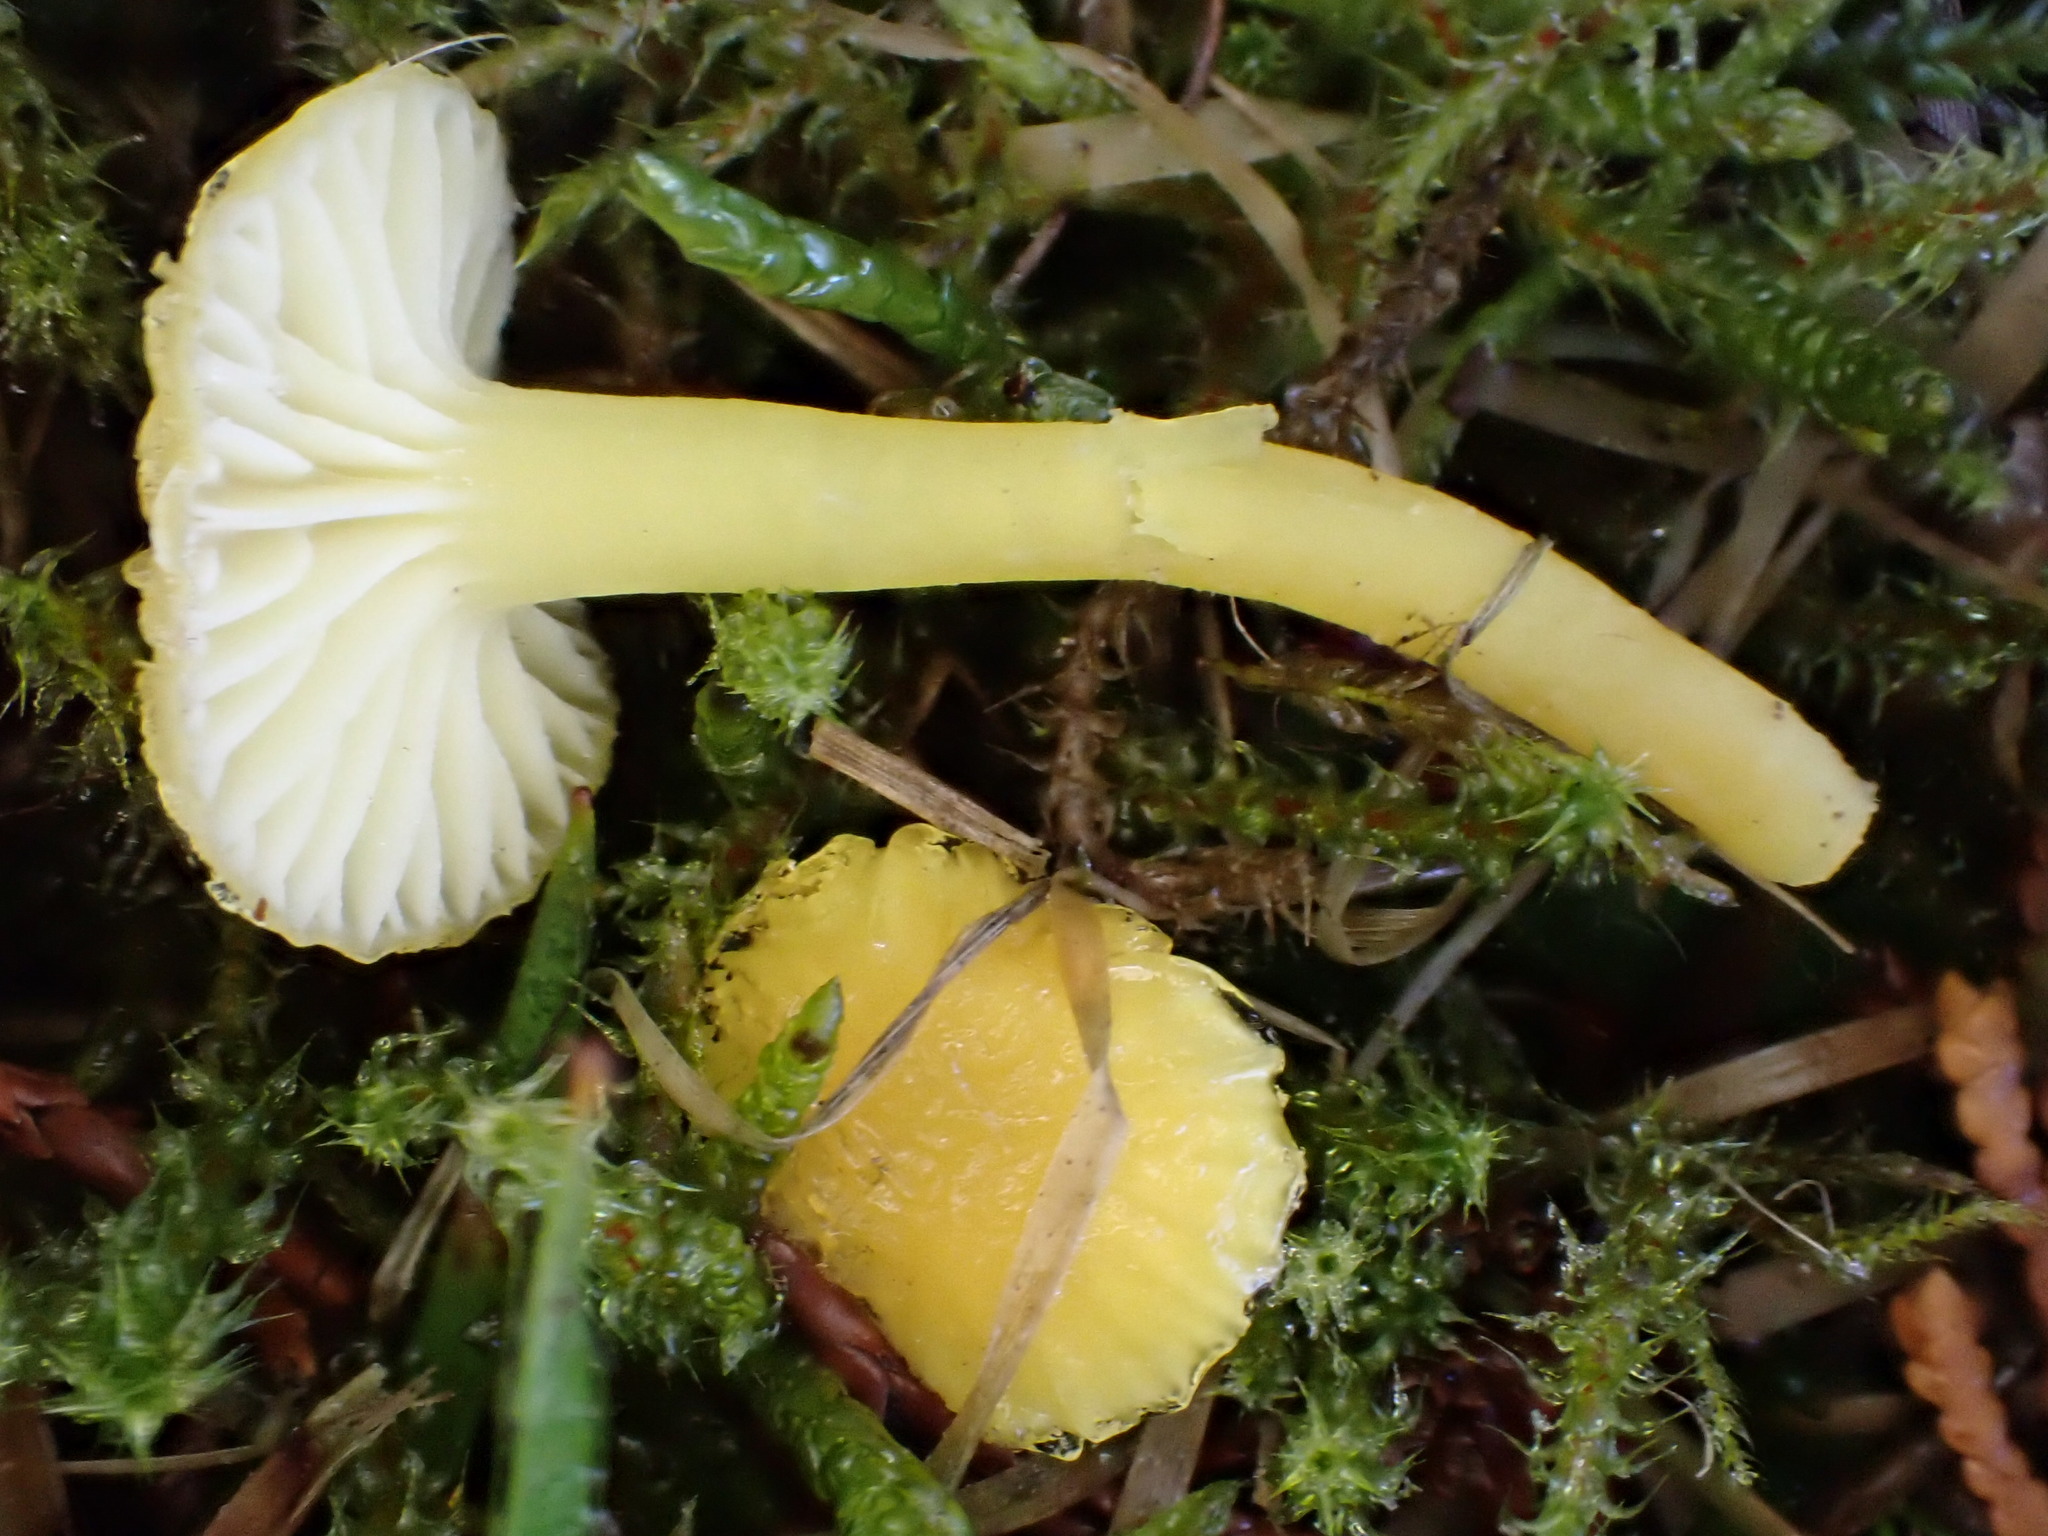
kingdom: Fungi
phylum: Basidiomycota
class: Agaricomycetes
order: Agaricales
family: Hygrophoraceae
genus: Hygrocybe
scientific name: Hygrocybe ceracea
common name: Butter waxcap
